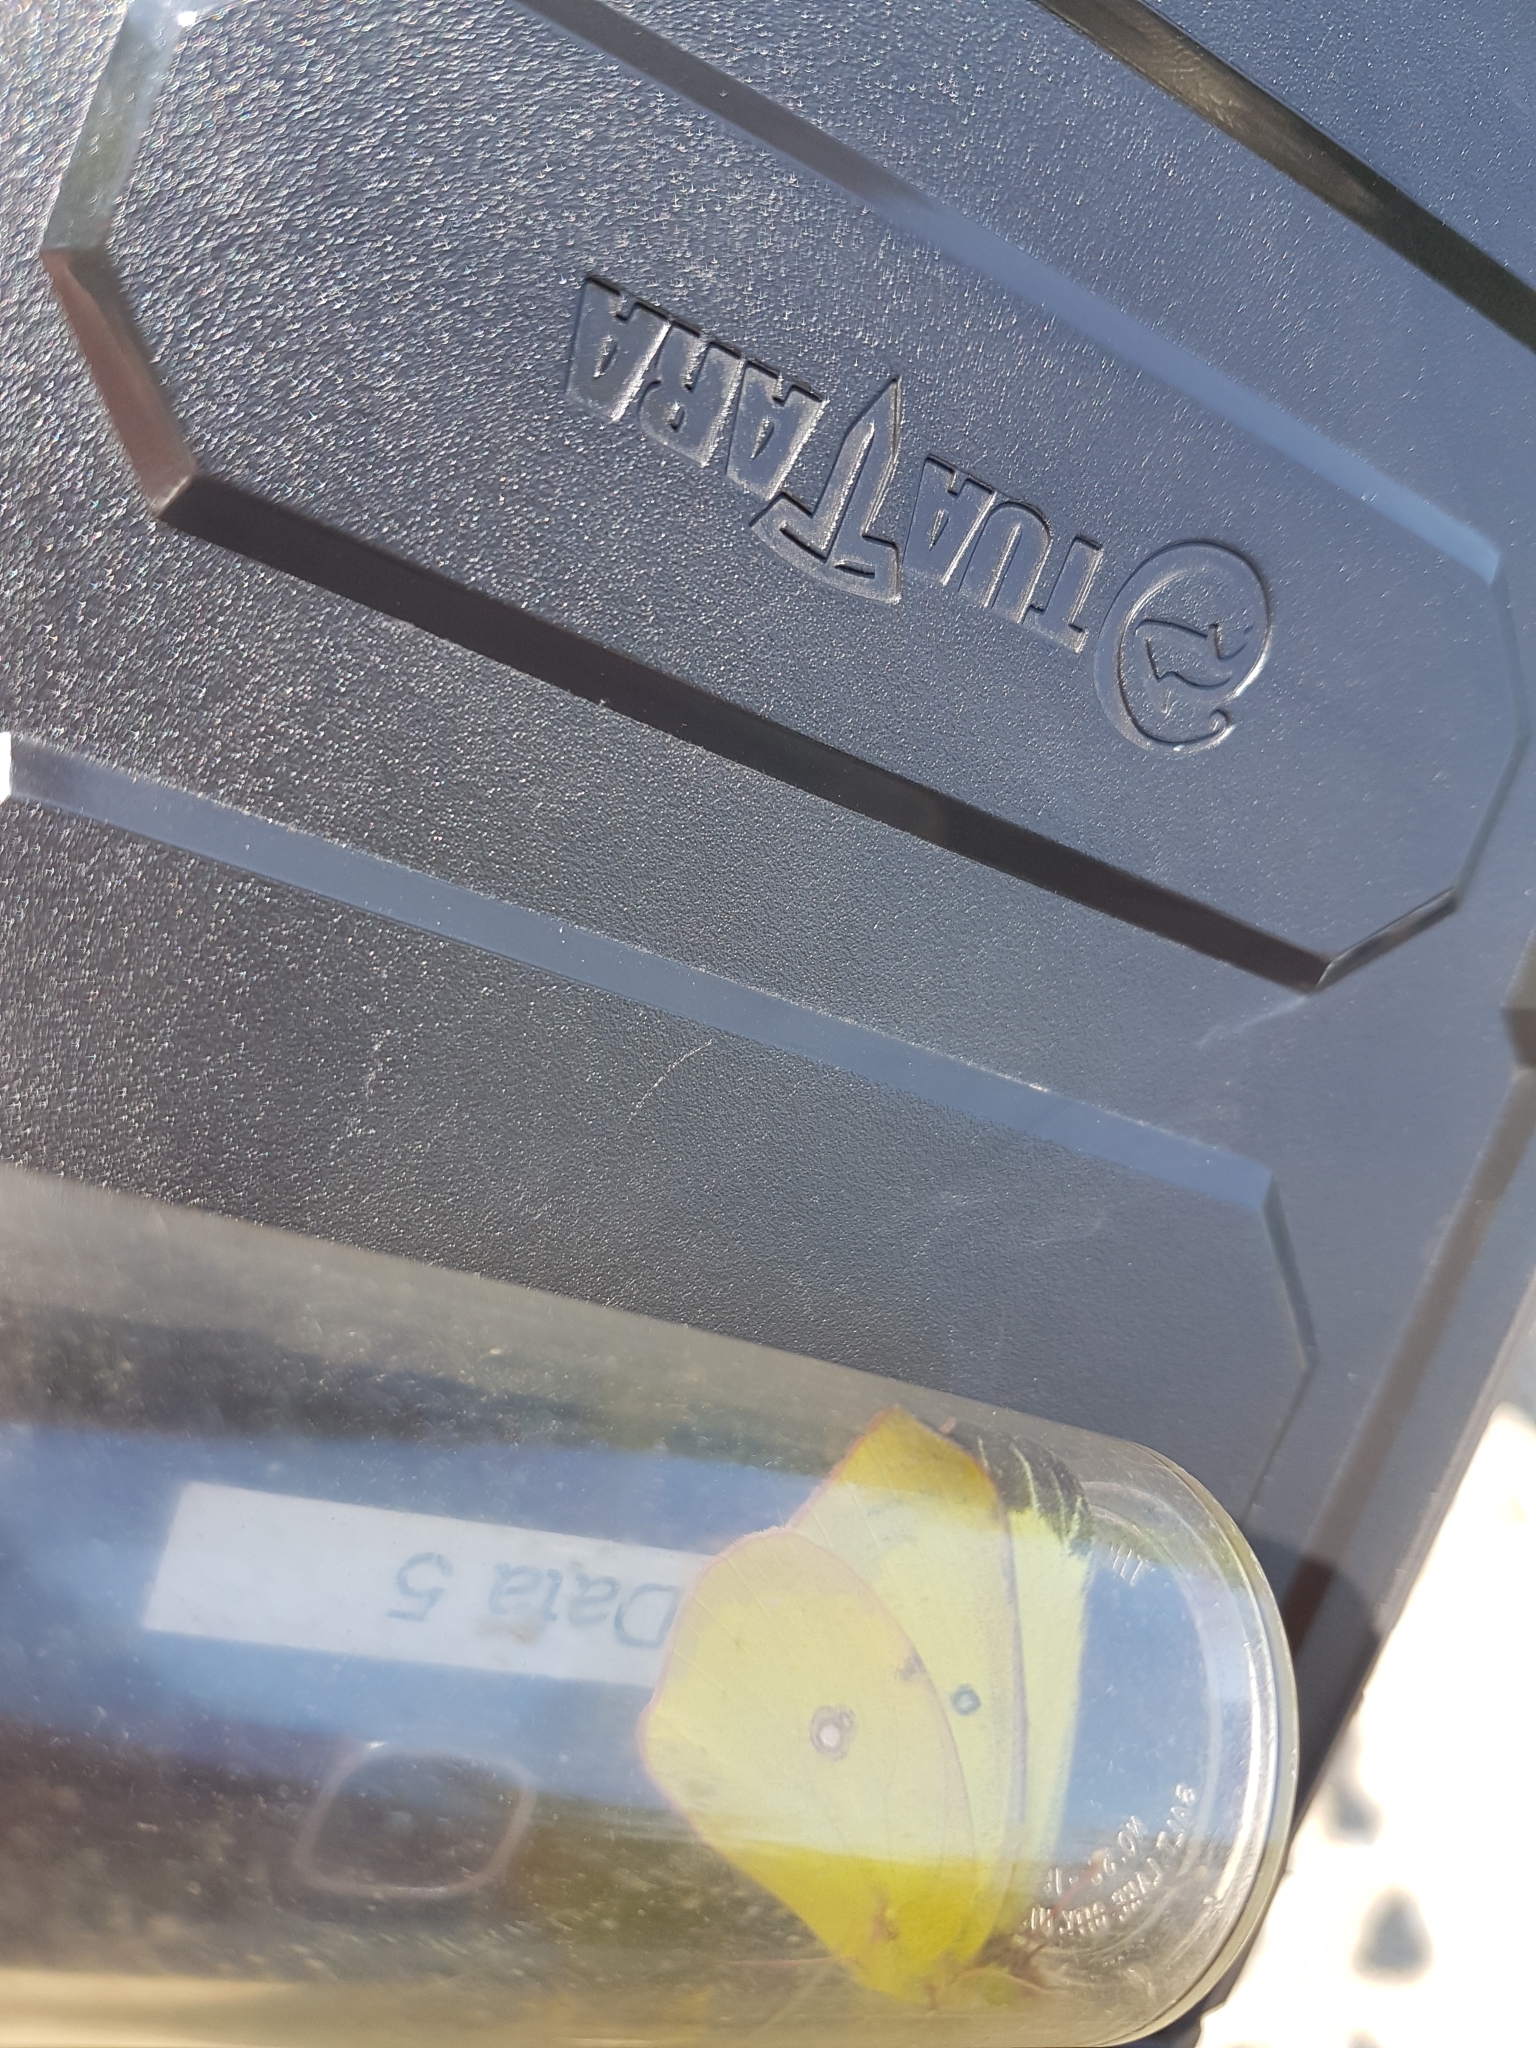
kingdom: Animalia
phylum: Arthropoda
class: Insecta
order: Lepidoptera
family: Pieridae
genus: Colias
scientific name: Colias philodice
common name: Clouded sulphur
